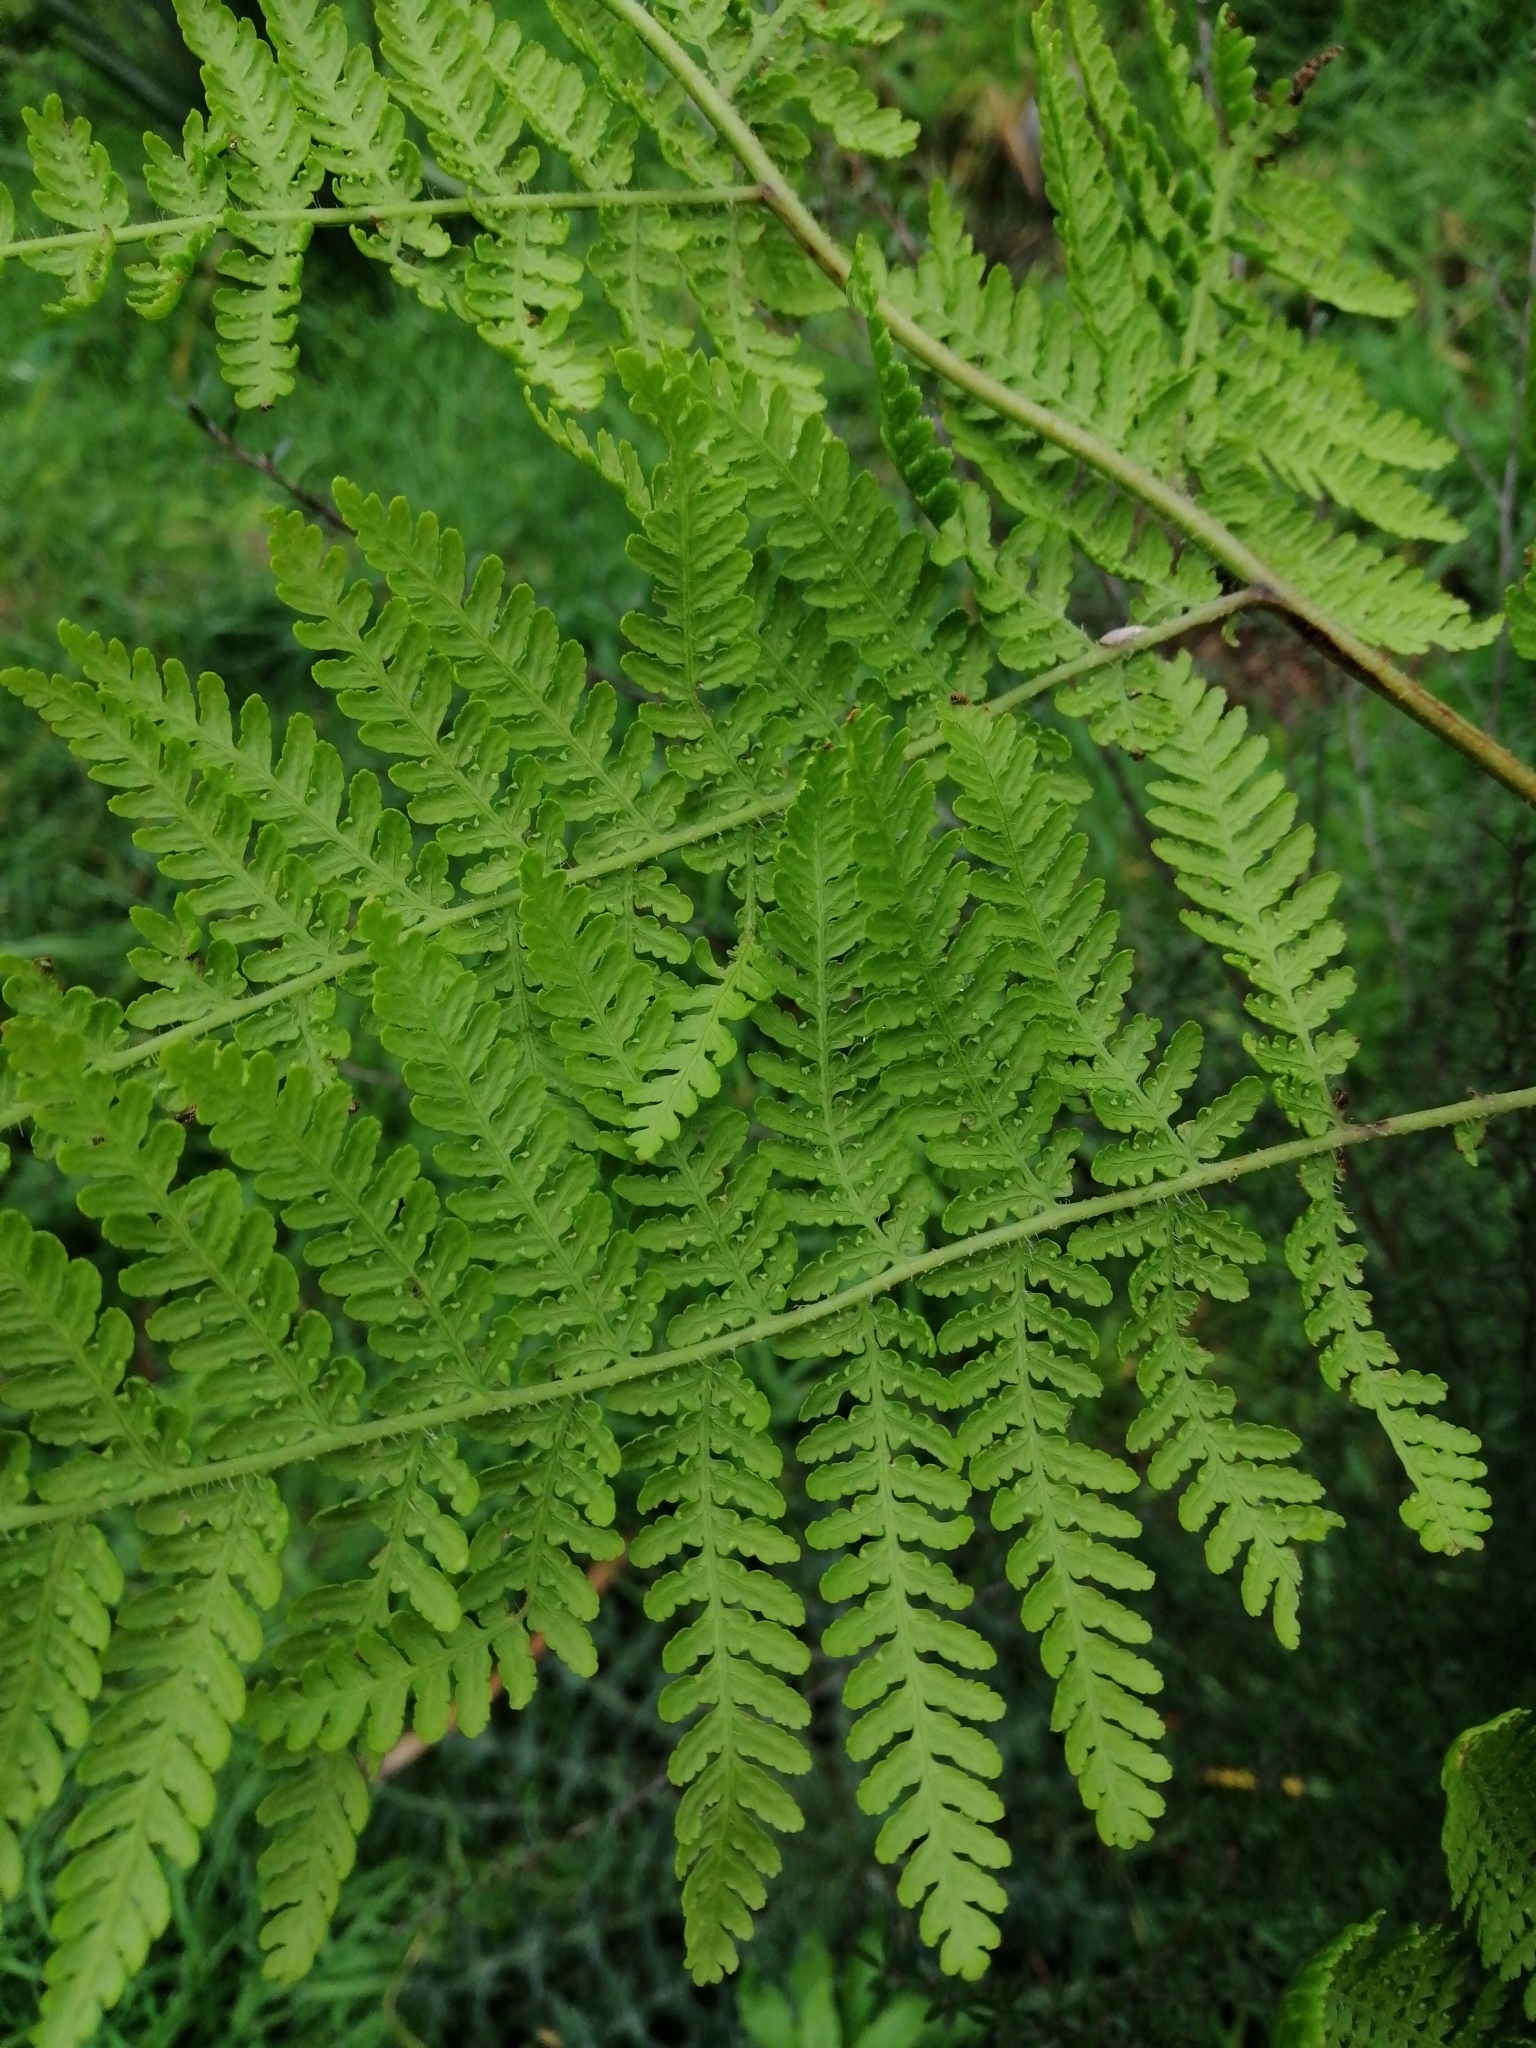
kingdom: Plantae
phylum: Tracheophyta
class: Polypodiopsida
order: Polypodiales
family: Dennstaedtiaceae
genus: Hypolepis
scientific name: Hypolepis dicksonioides
